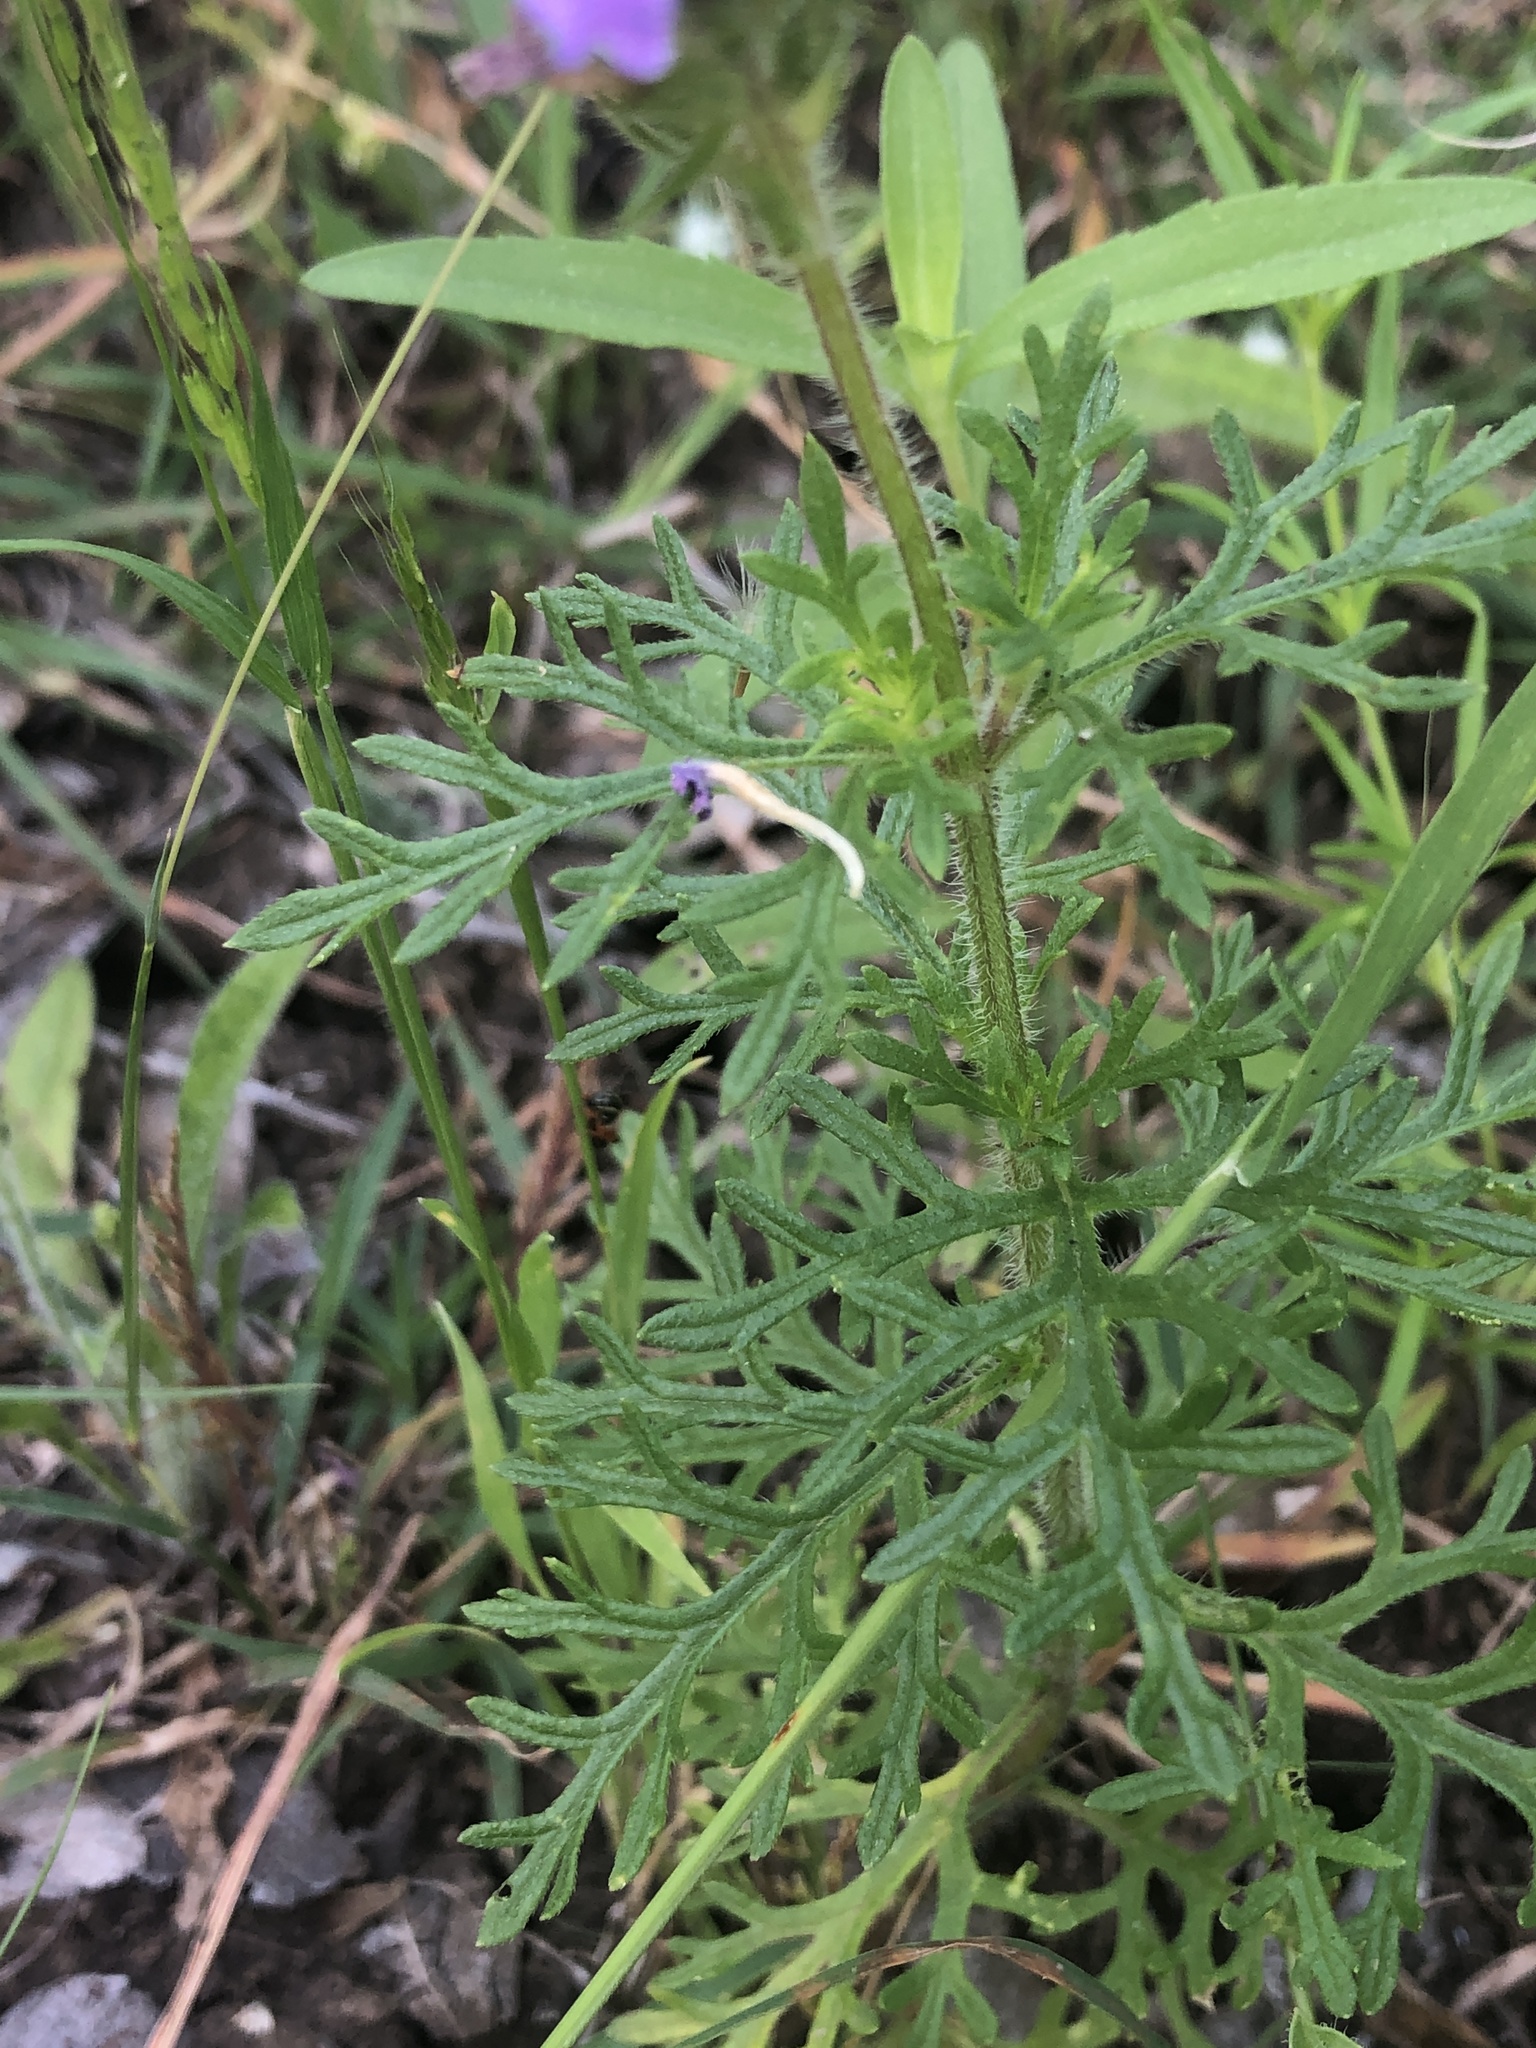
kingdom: Plantae
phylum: Tracheophyta
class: Magnoliopsida
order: Lamiales
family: Verbenaceae
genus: Verbena
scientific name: Verbena bipinnatifida
